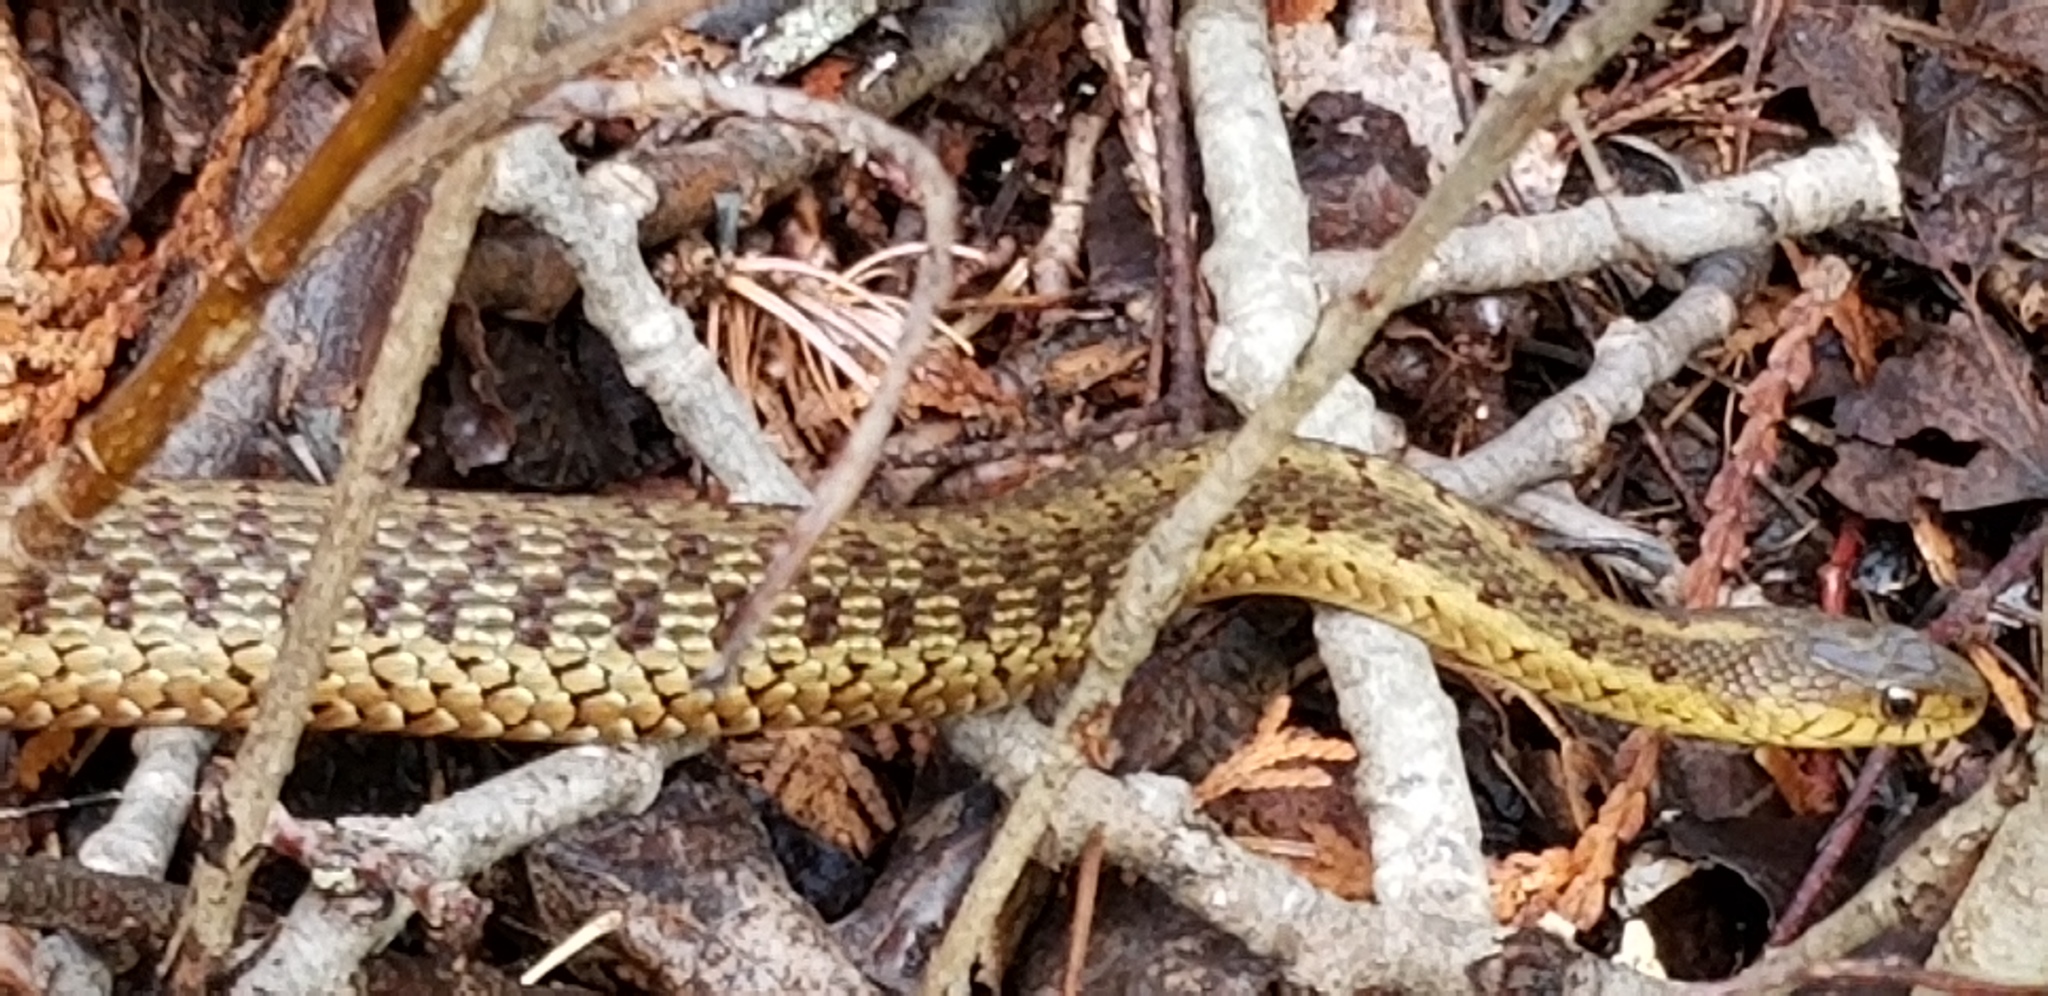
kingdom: Animalia
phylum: Chordata
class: Squamata
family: Colubridae
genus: Thamnophis
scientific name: Thamnophis sirtalis
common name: Common garter snake
